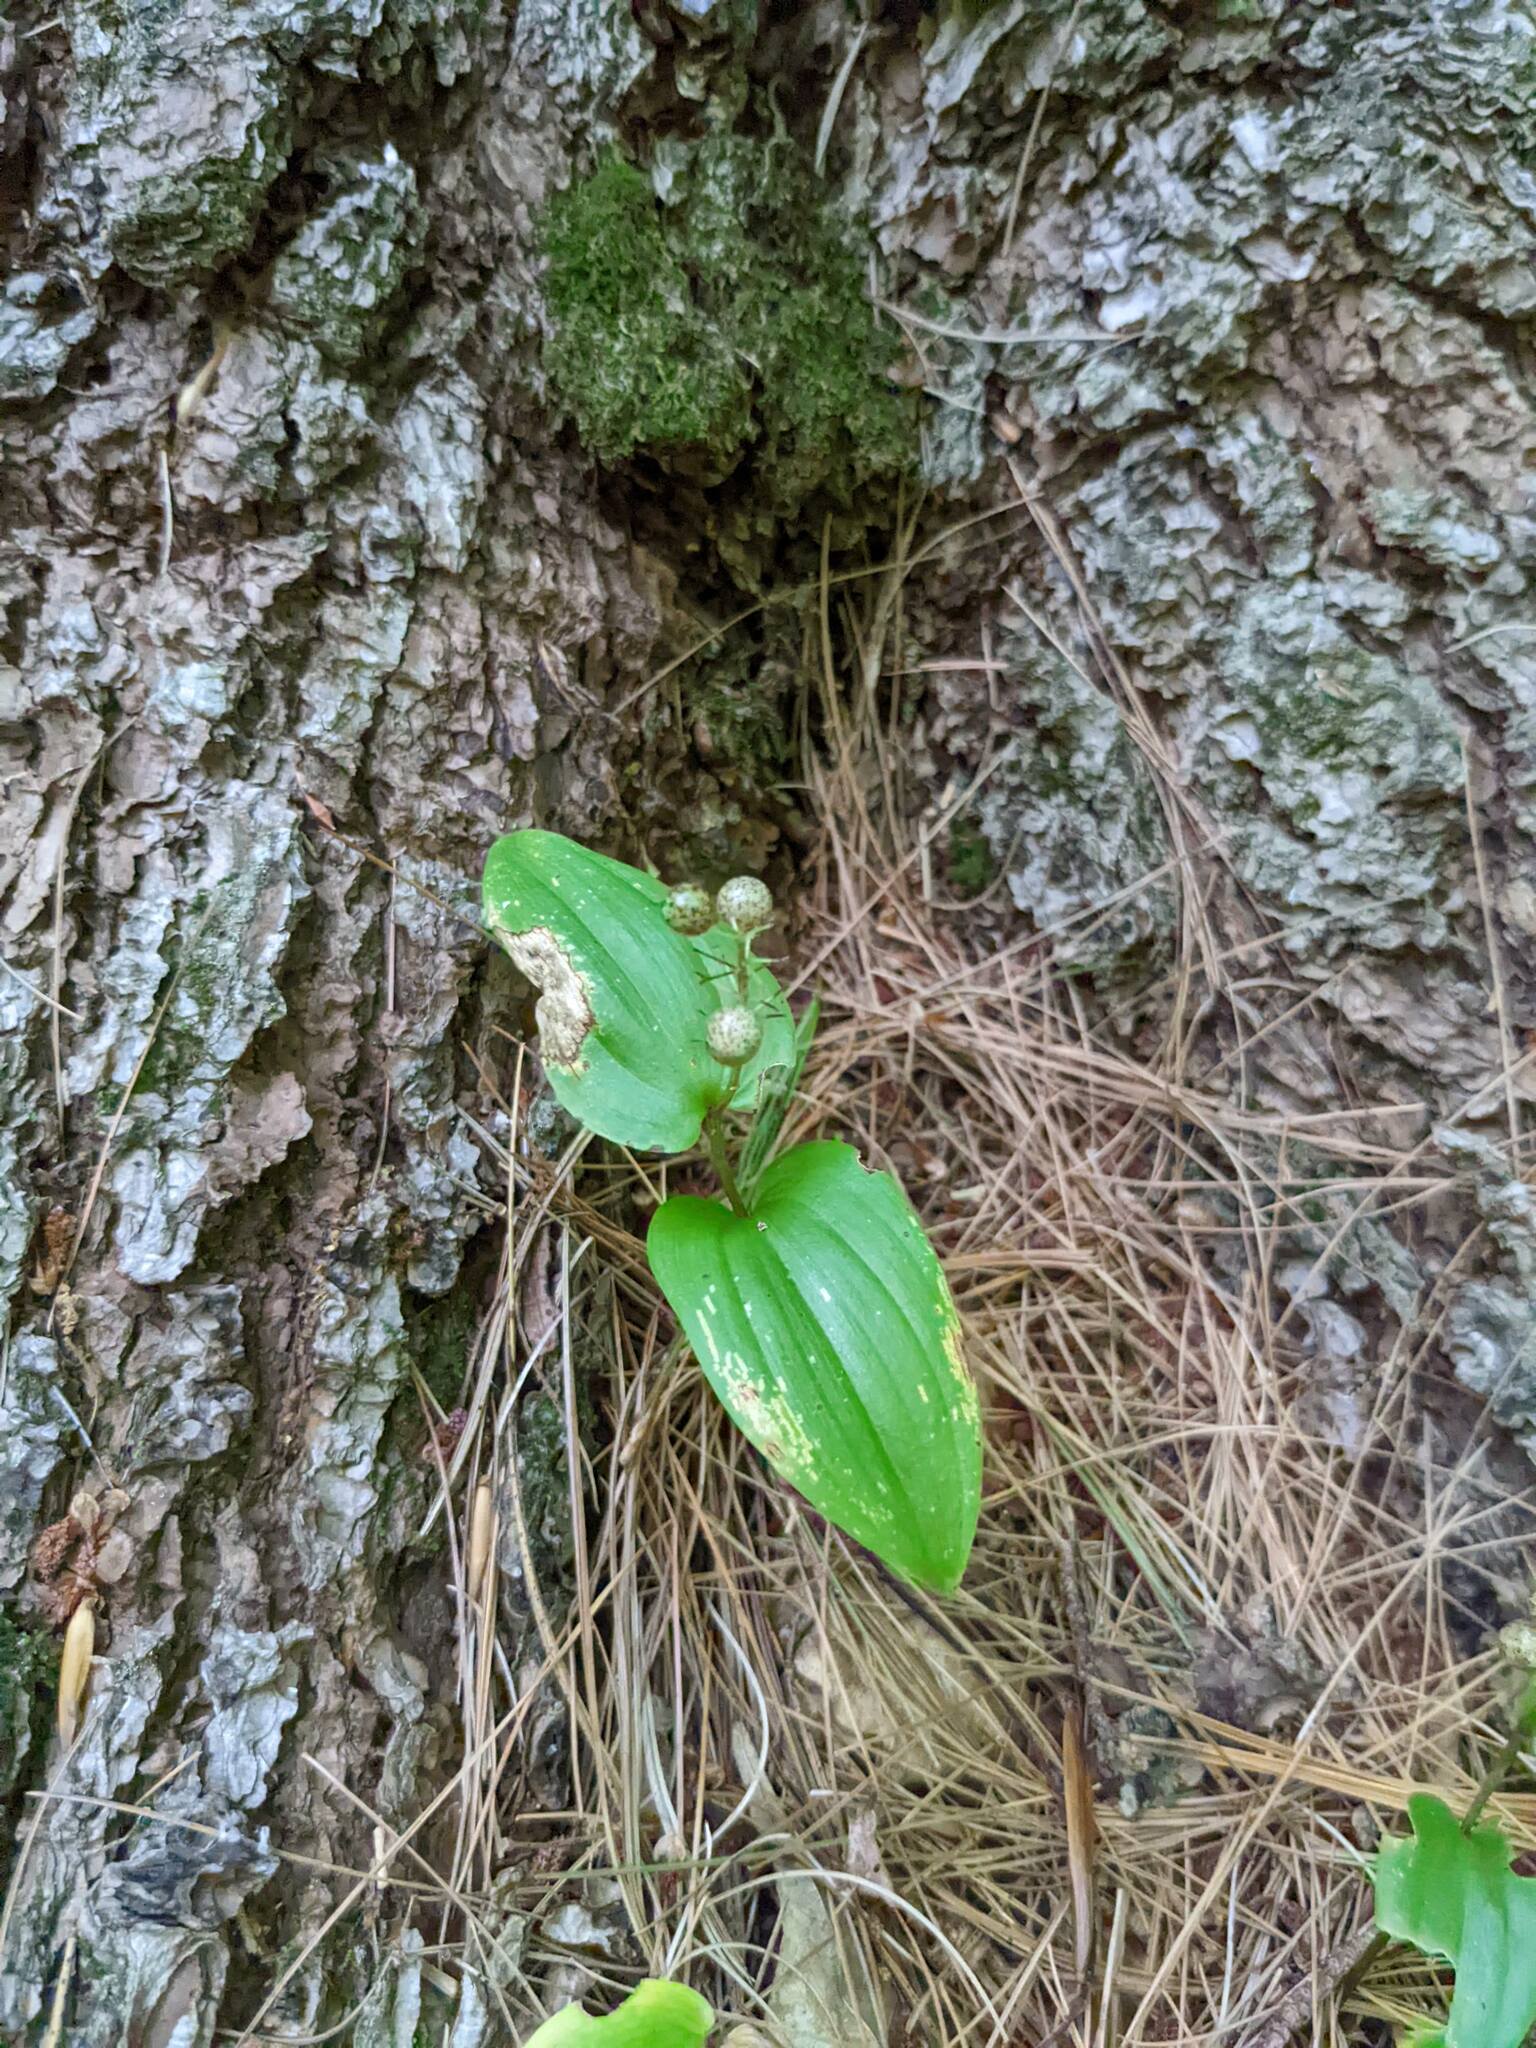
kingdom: Plantae
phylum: Tracheophyta
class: Liliopsida
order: Asparagales
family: Asparagaceae
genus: Maianthemum
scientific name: Maianthemum canadense
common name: False lily-of-the-valley
